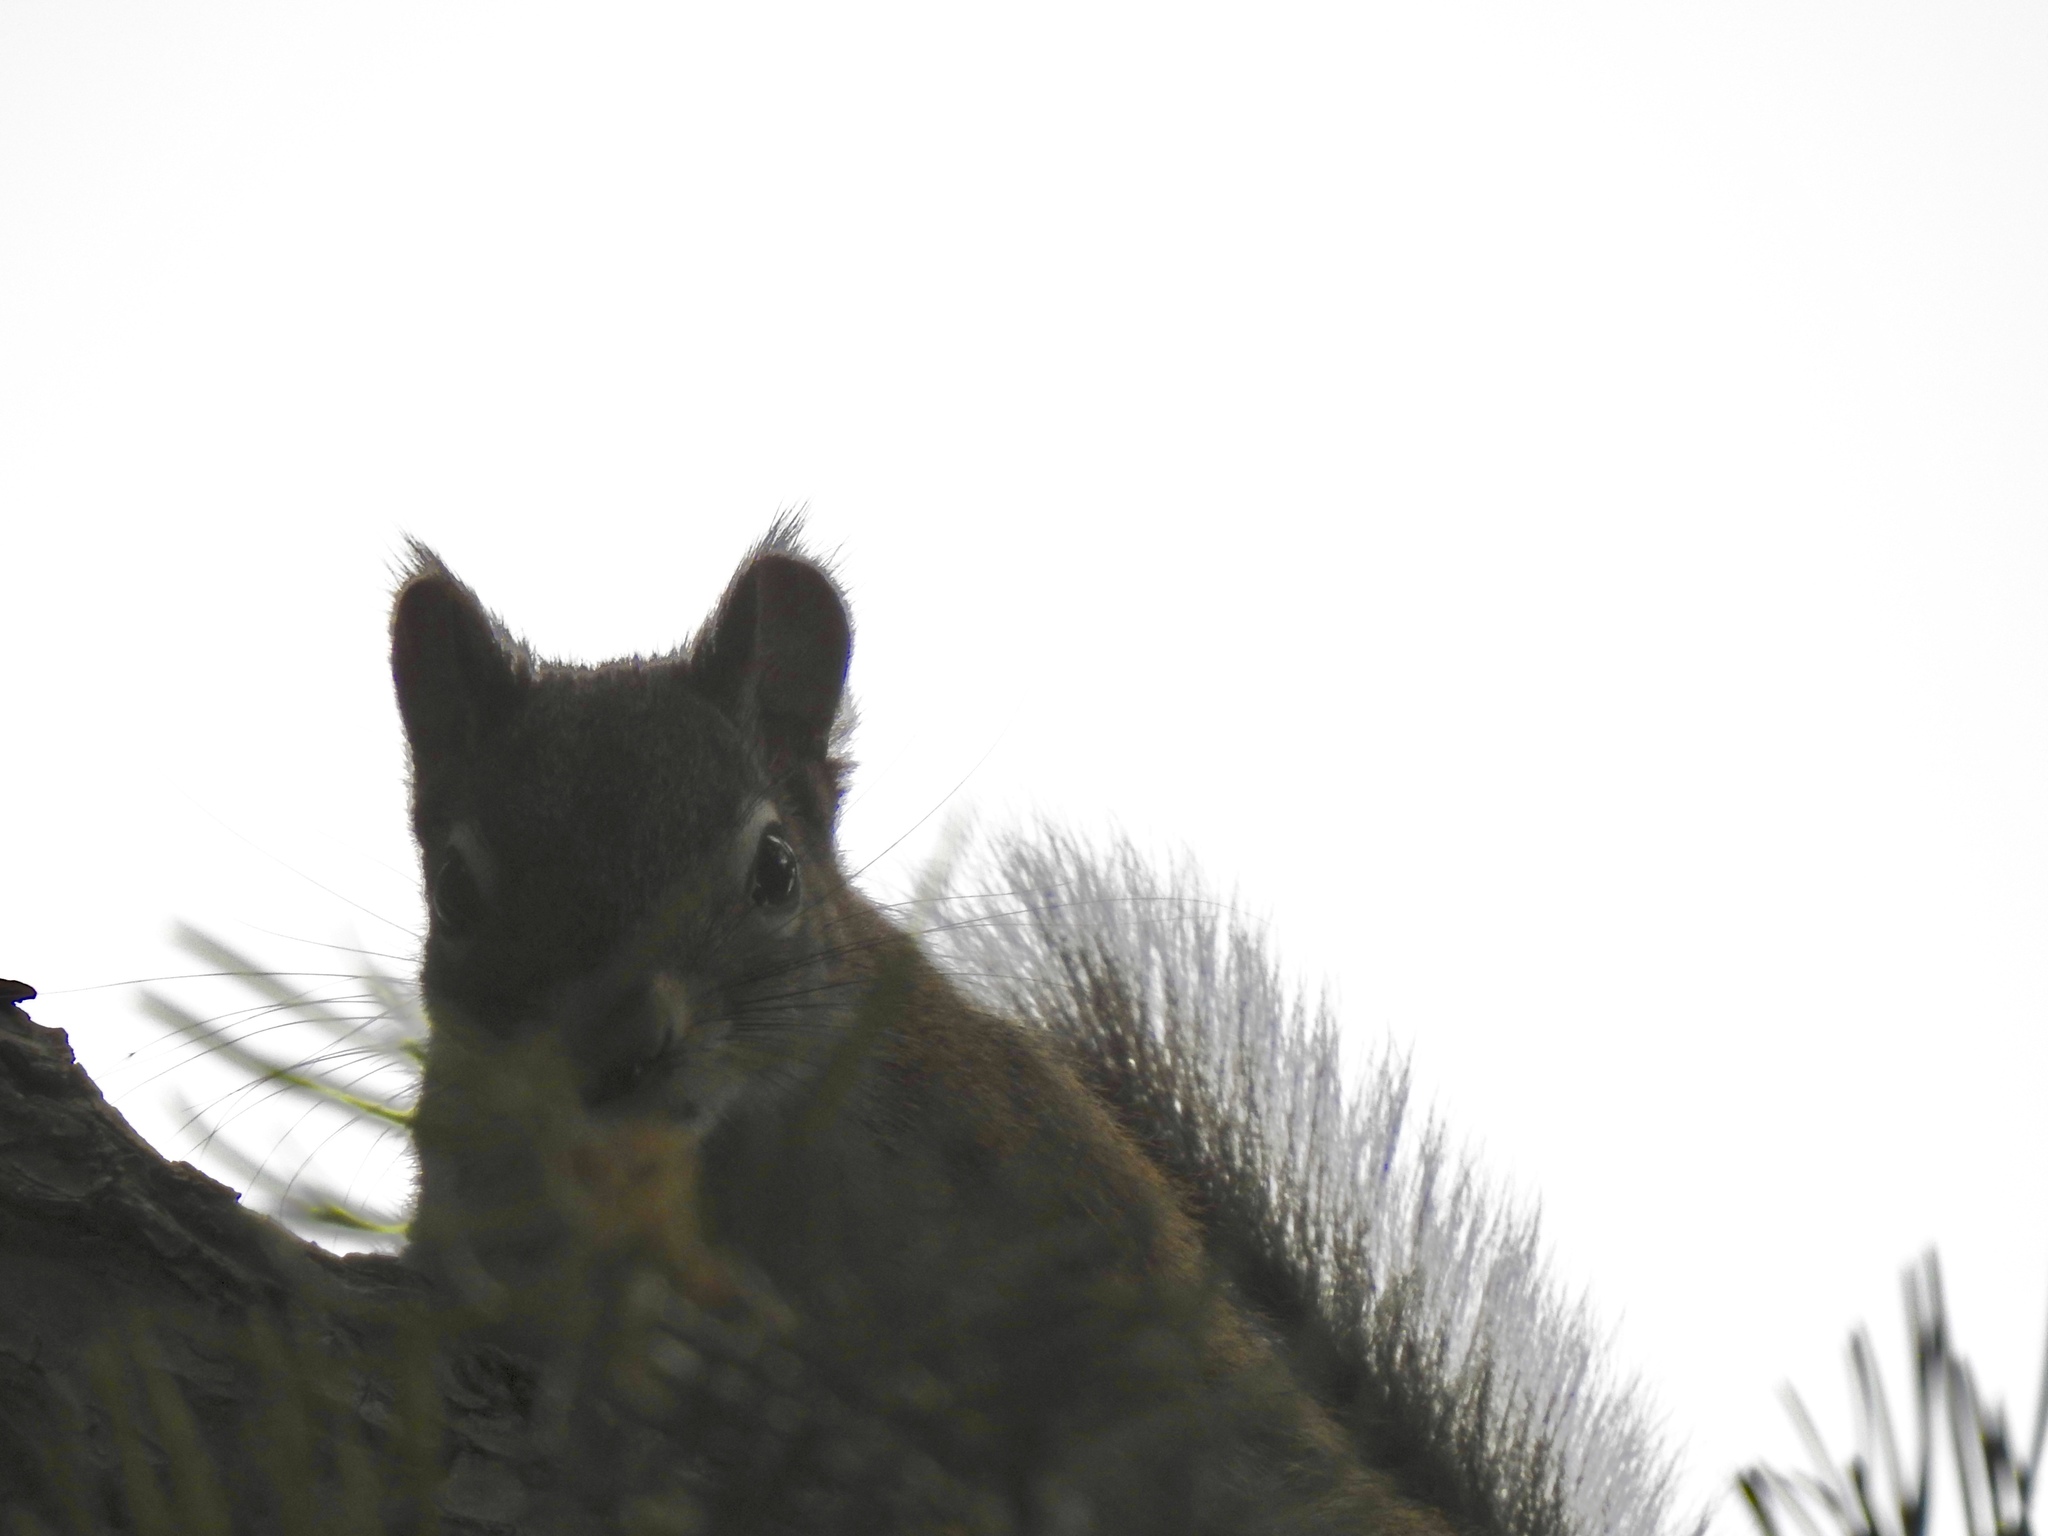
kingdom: Animalia
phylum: Chordata
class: Mammalia
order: Rodentia
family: Sciuridae
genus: Tamiasciurus
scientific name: Tamiasciurus hudsonicus
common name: Red squirrel
